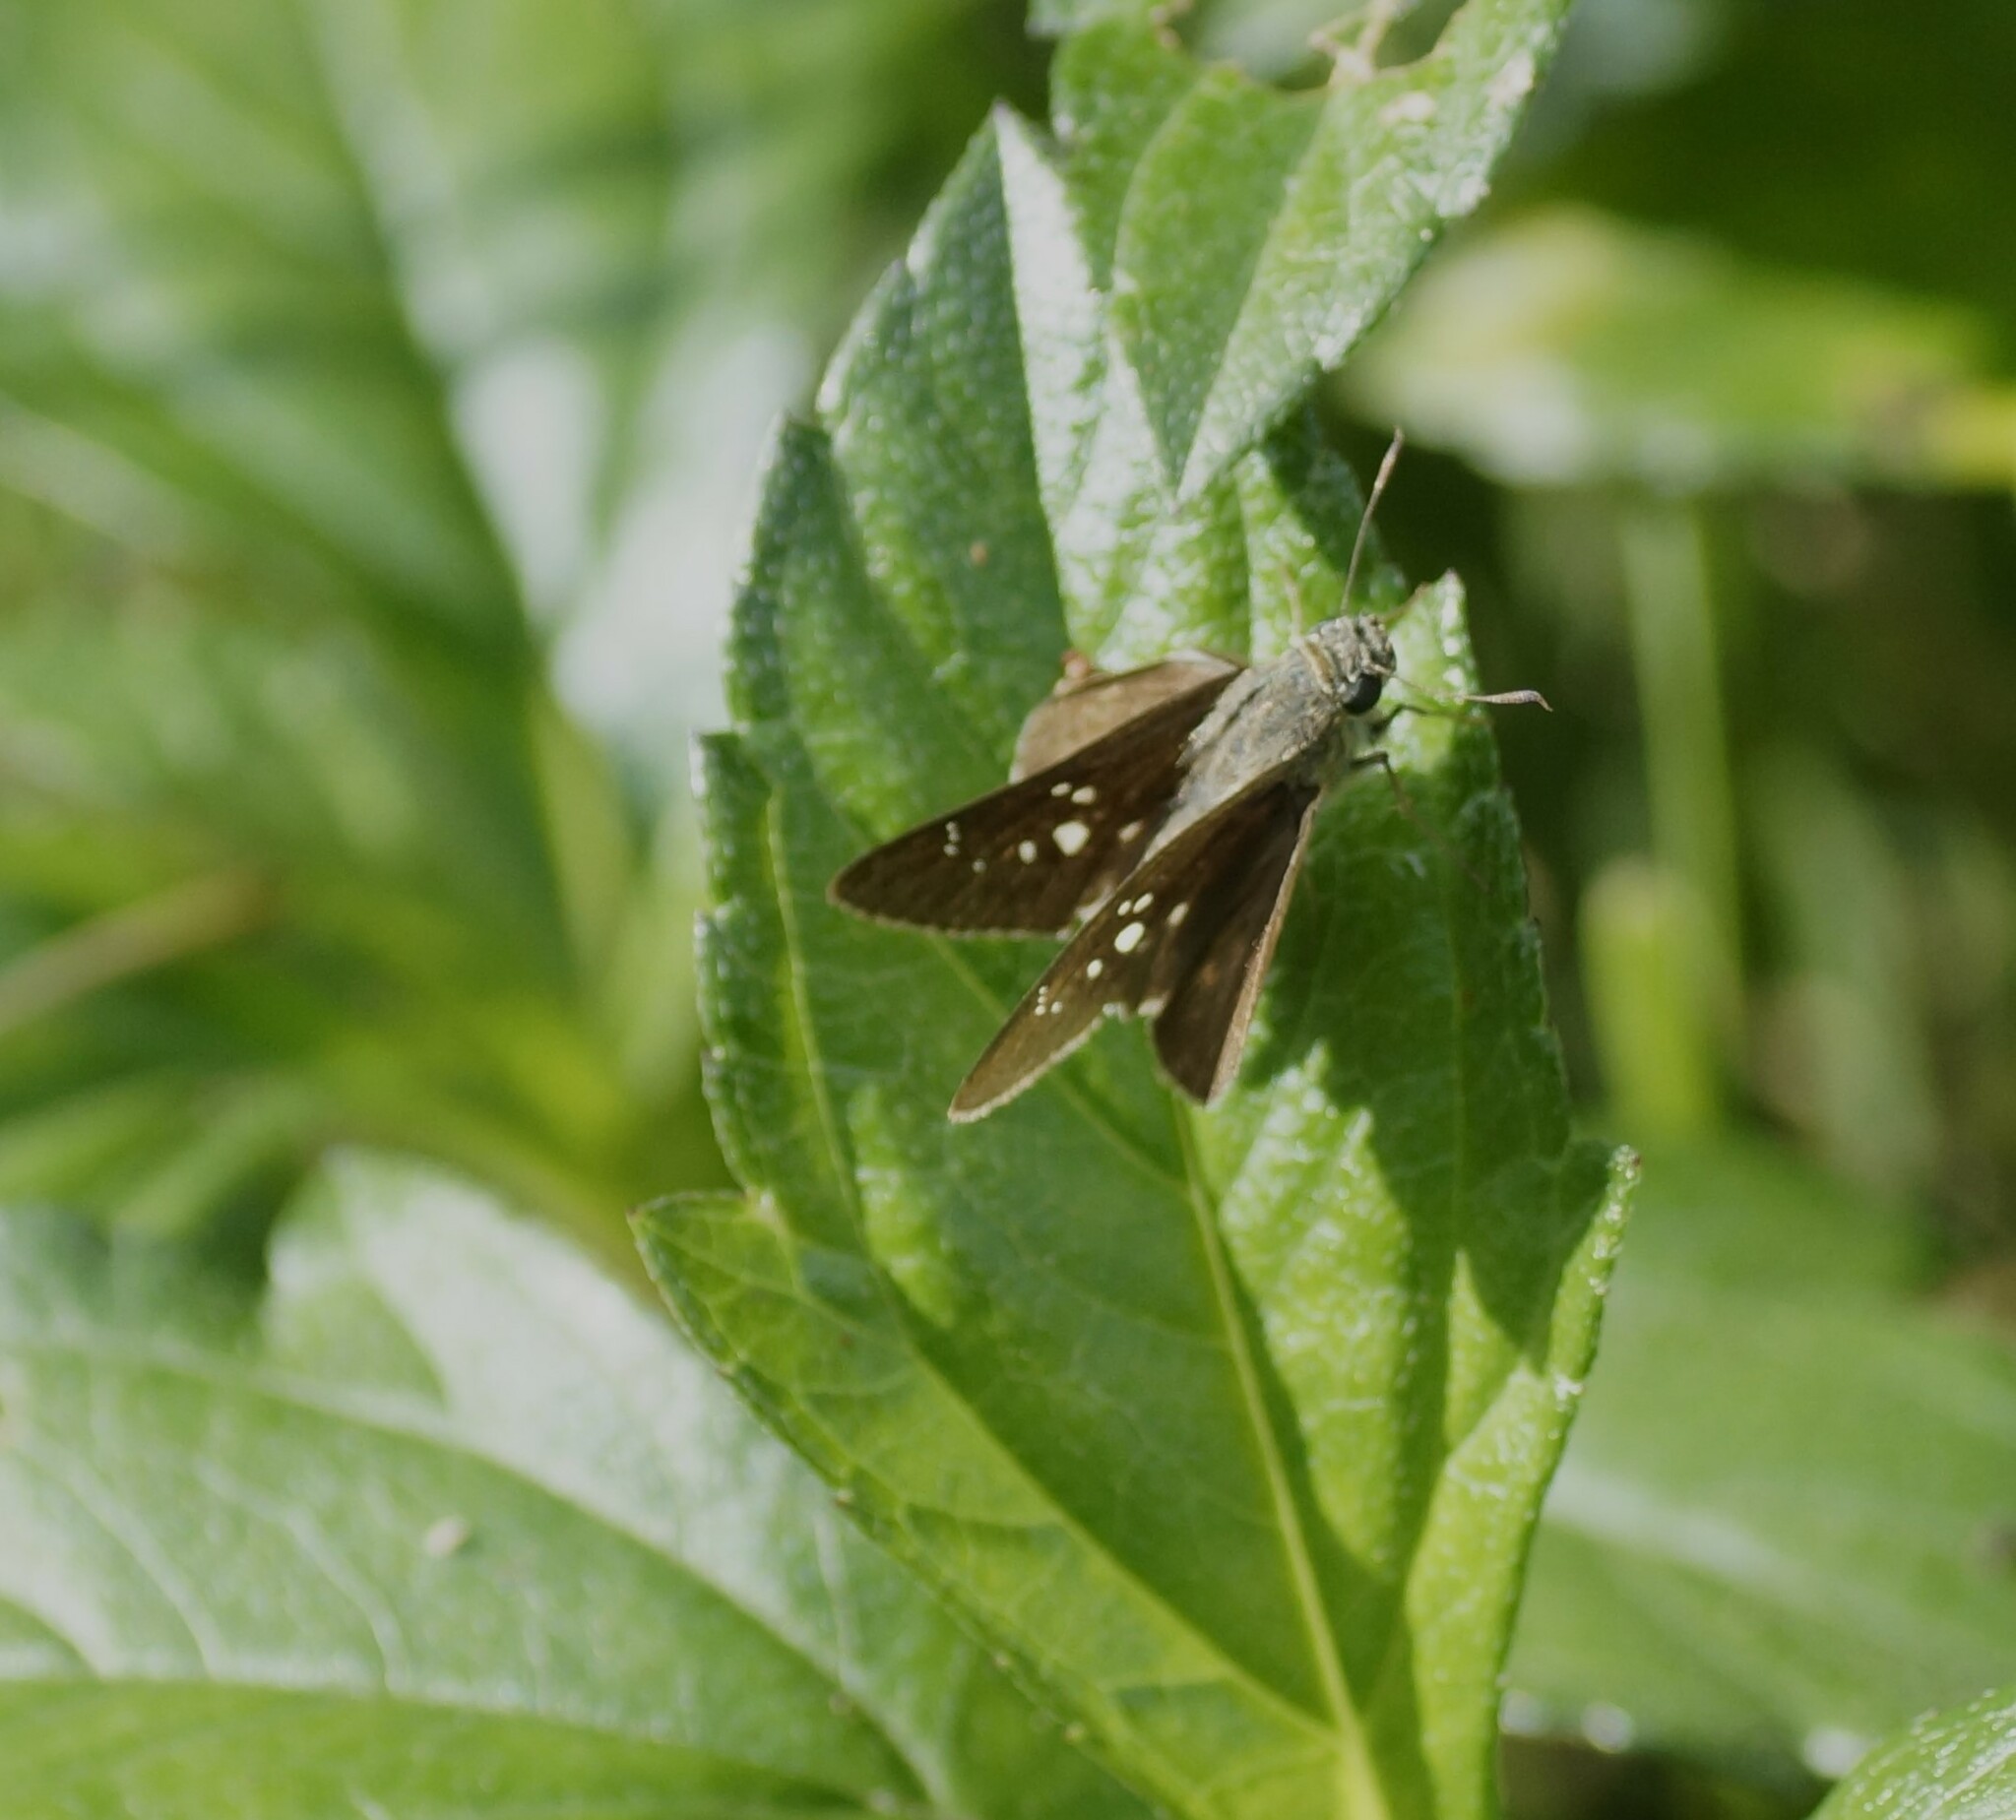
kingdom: Animalia
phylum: Arthropoda
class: Insecta
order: Lepidoptera
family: Hesperiidae
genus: Pelopidas
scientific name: Pelopidas lyelli
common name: Lyell's swift
